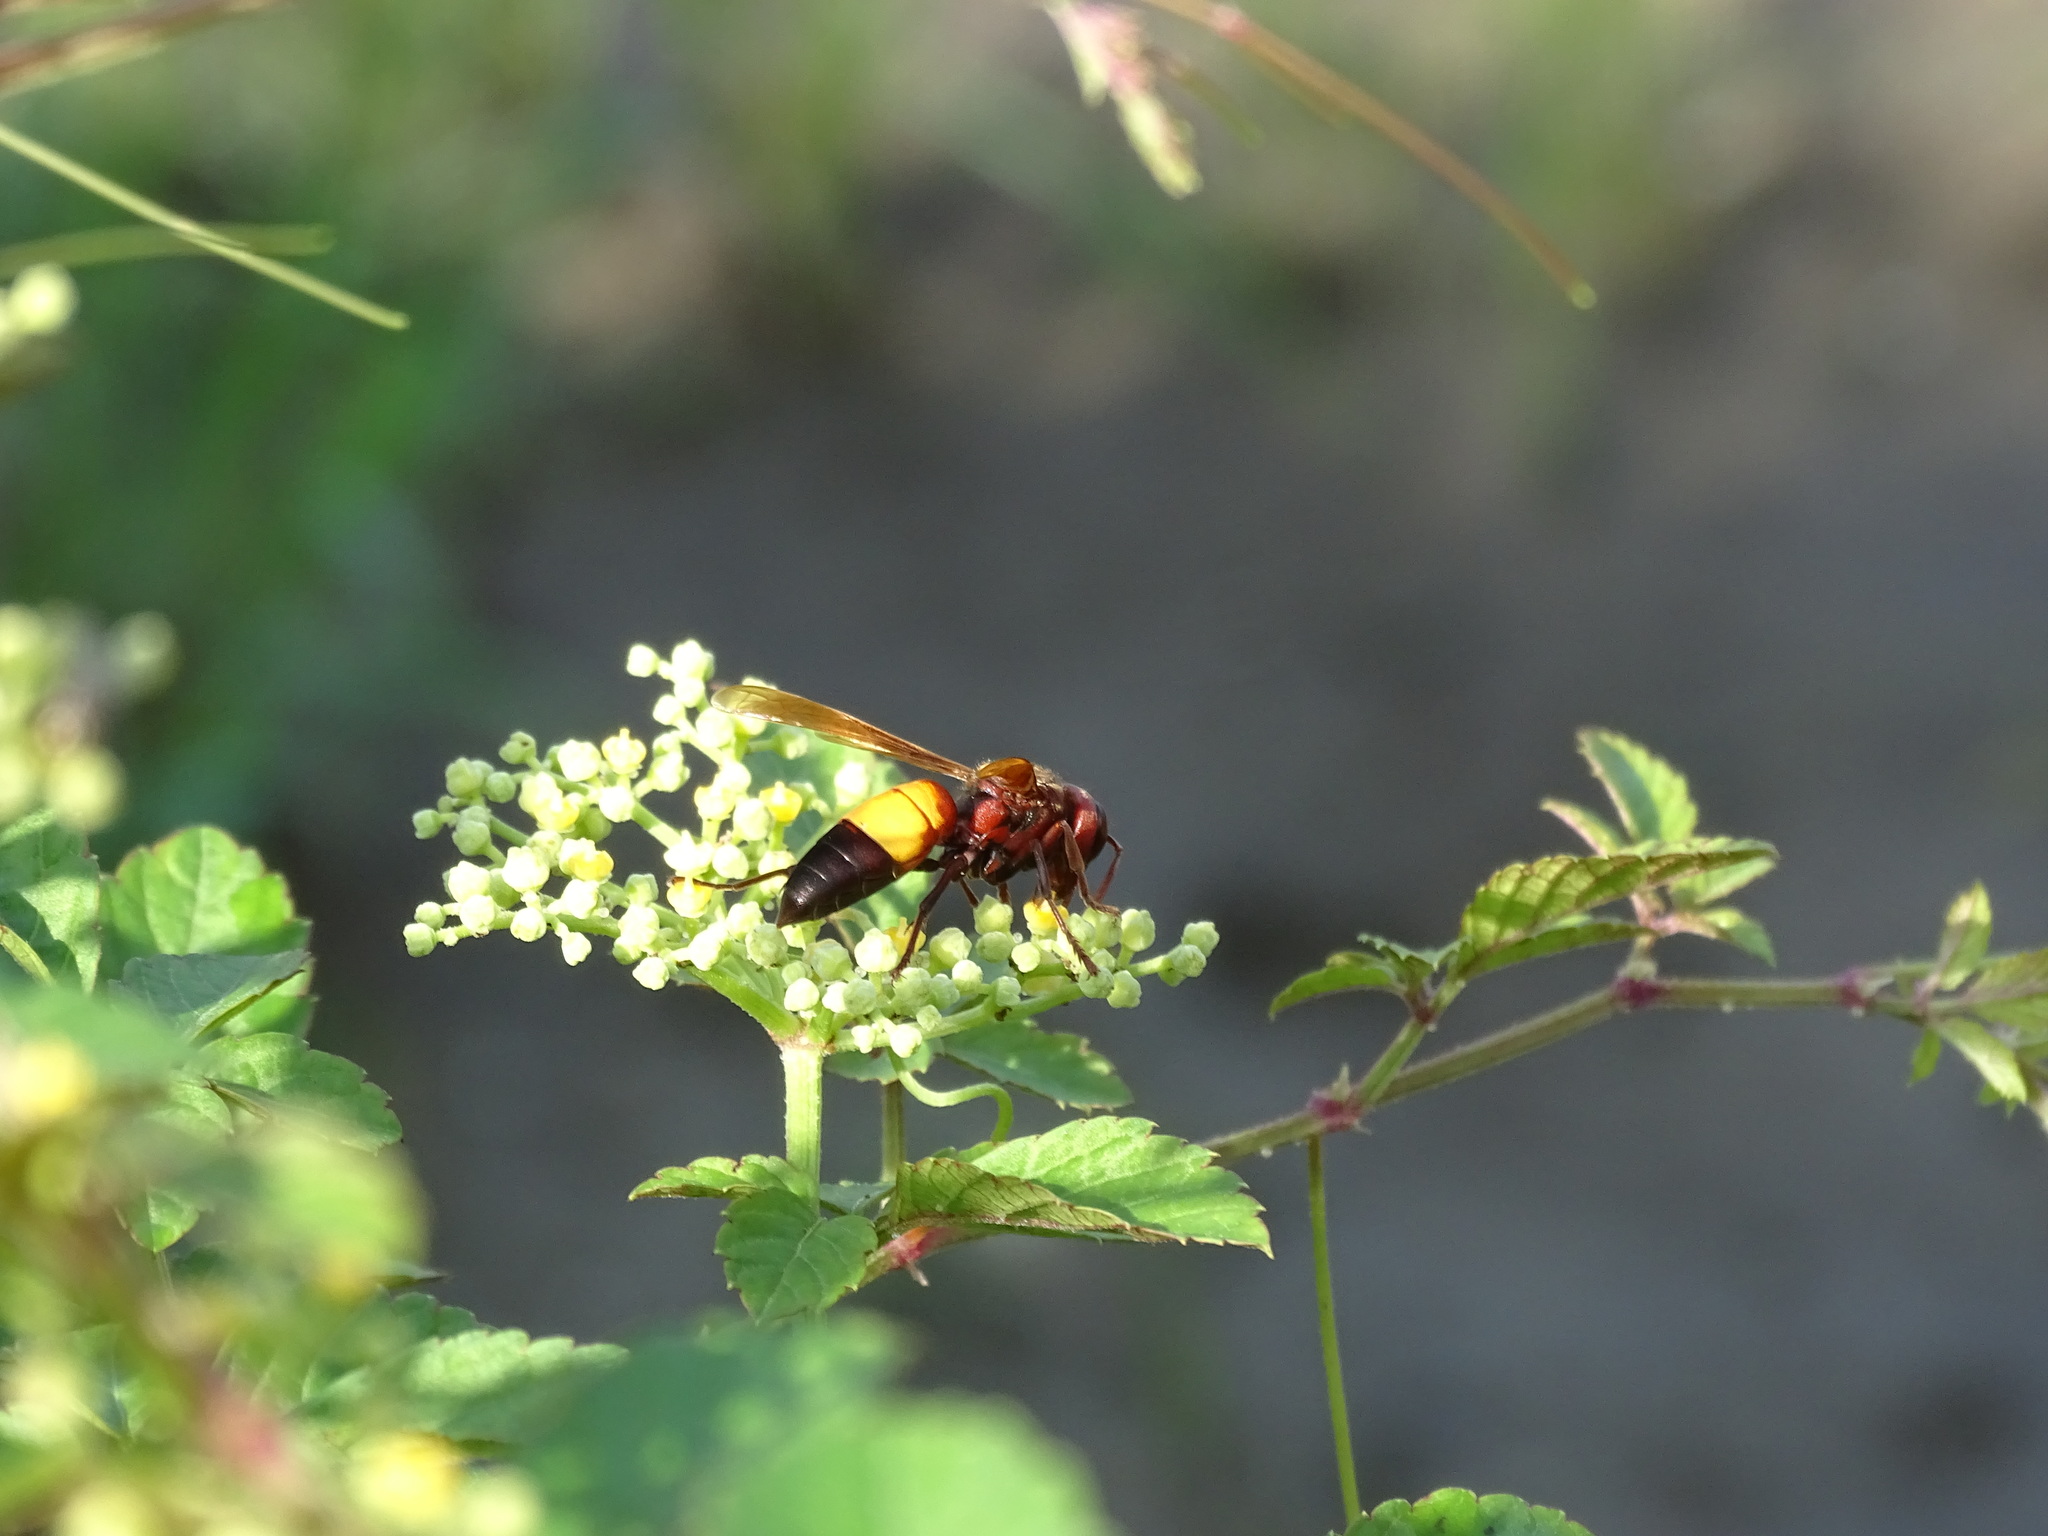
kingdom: Animalia
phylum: Arthropoda
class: Insecta
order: Hymenoptera
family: Vespidae
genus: Vespa
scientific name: Vespa affinis
